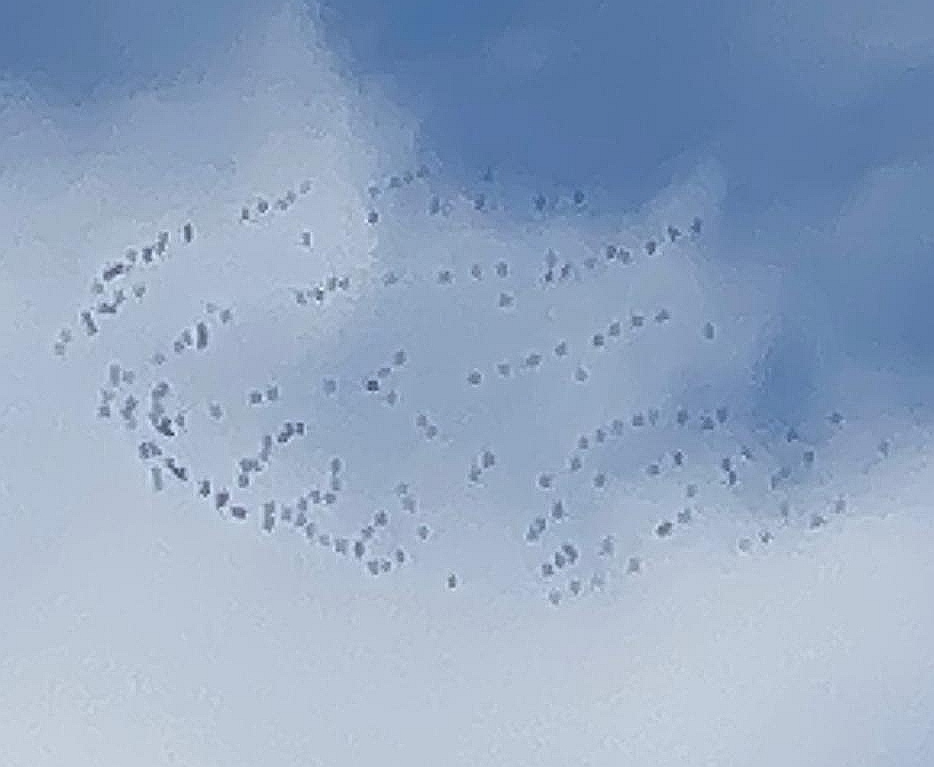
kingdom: Animalia
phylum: Chordata
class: Aves
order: Gruiformes
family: Gruidae
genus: Grus
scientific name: Grus grus
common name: Common crane
